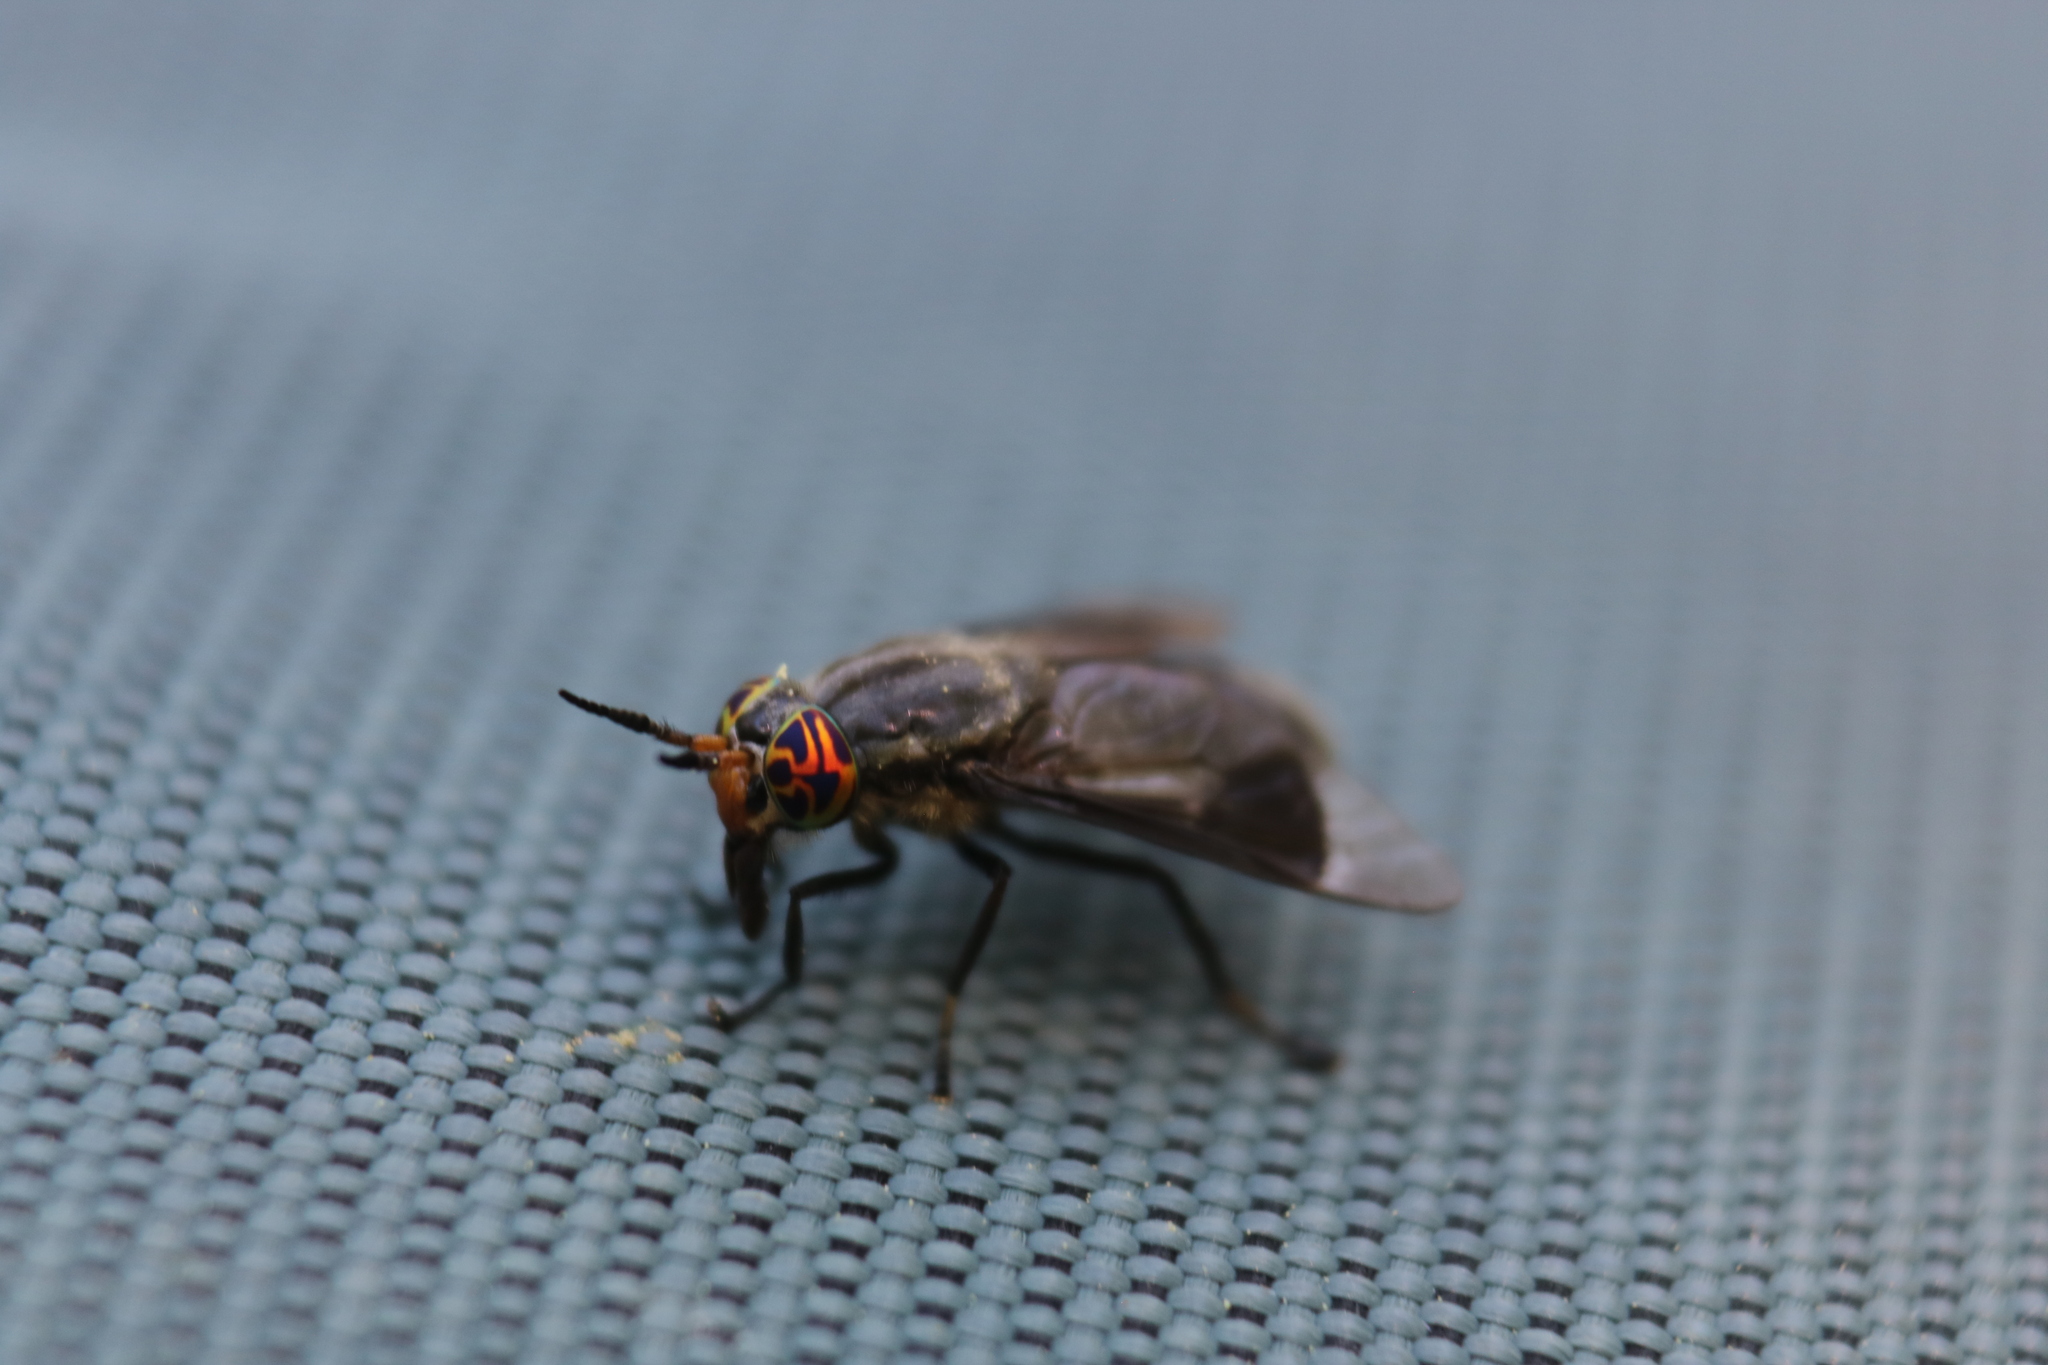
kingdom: Animalia
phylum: Arthropoda
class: Insecta
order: Diptera
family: Tabanidae
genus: Chrysops
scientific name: Chrysops niger
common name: Black deer fly
